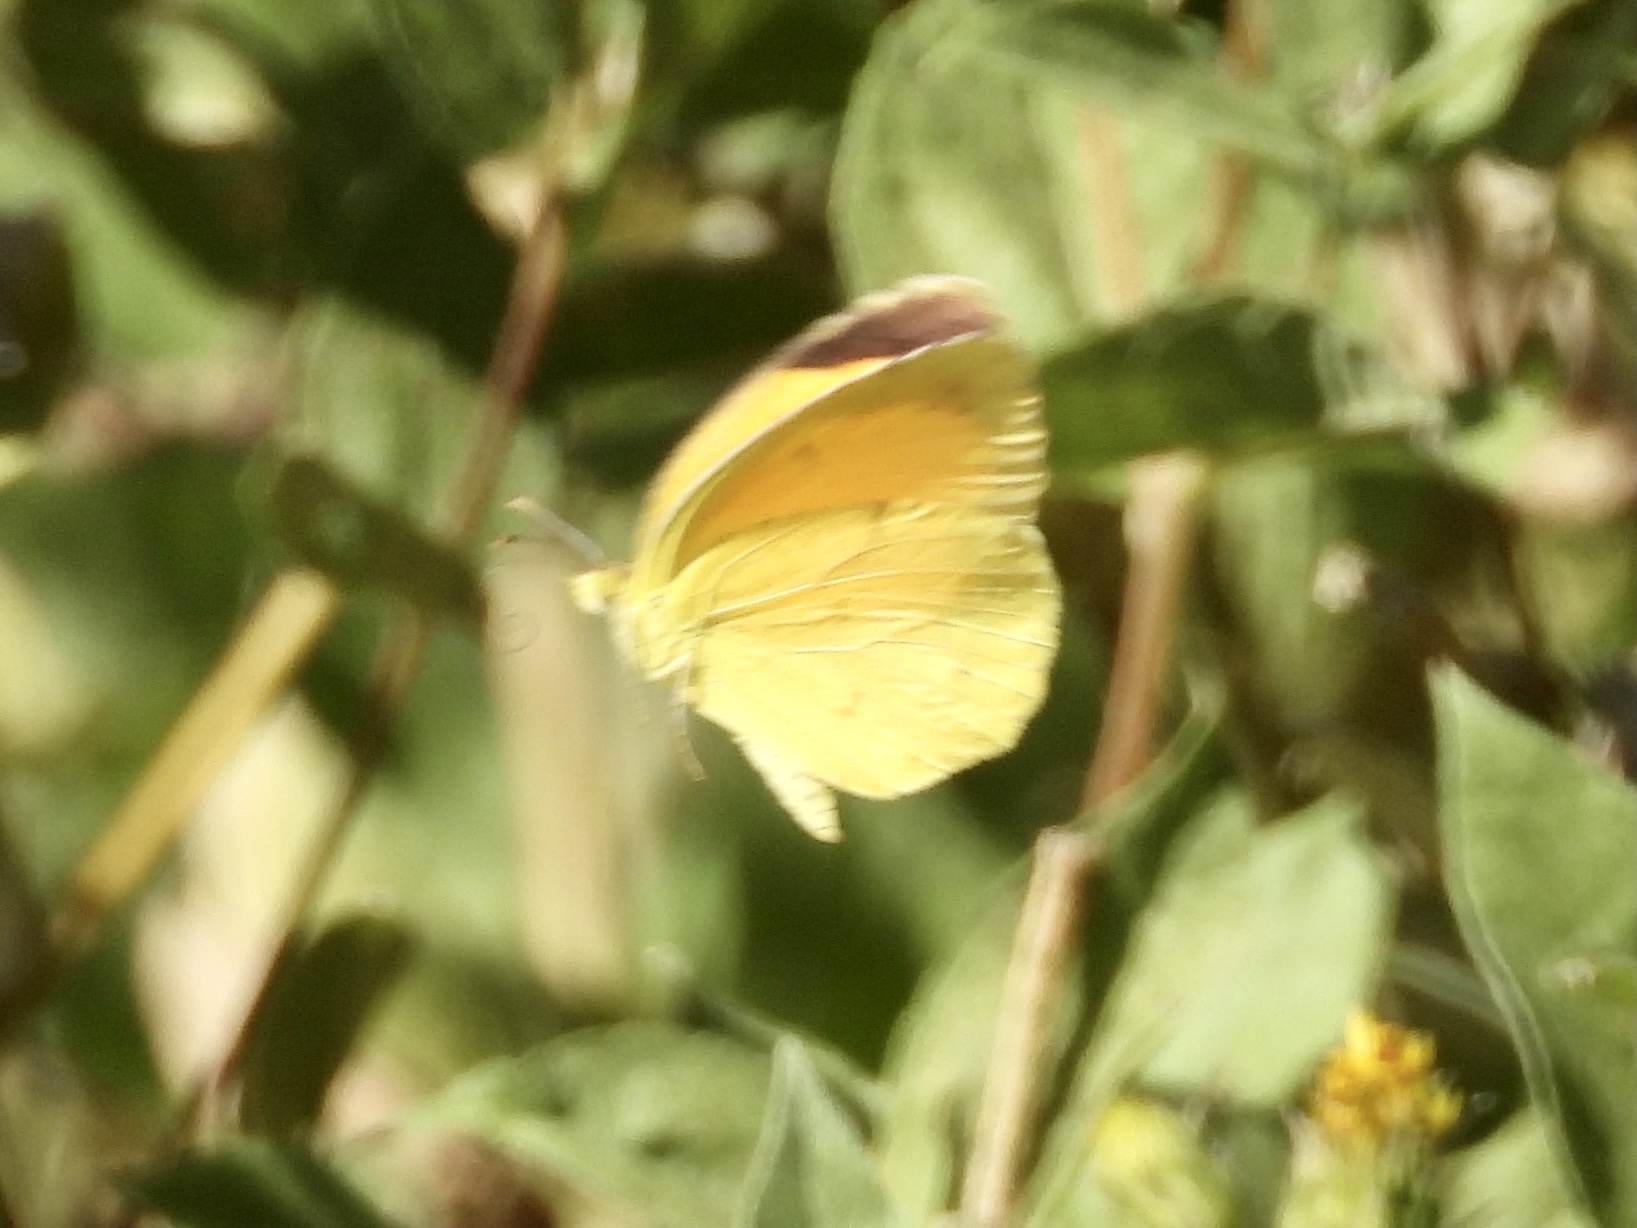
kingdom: Animalia
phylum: Arthropoda
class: Insecta
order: Lepidoptera
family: Pieridae
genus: Abaeis
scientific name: Abaeis nicippe
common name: Sleepy orange
